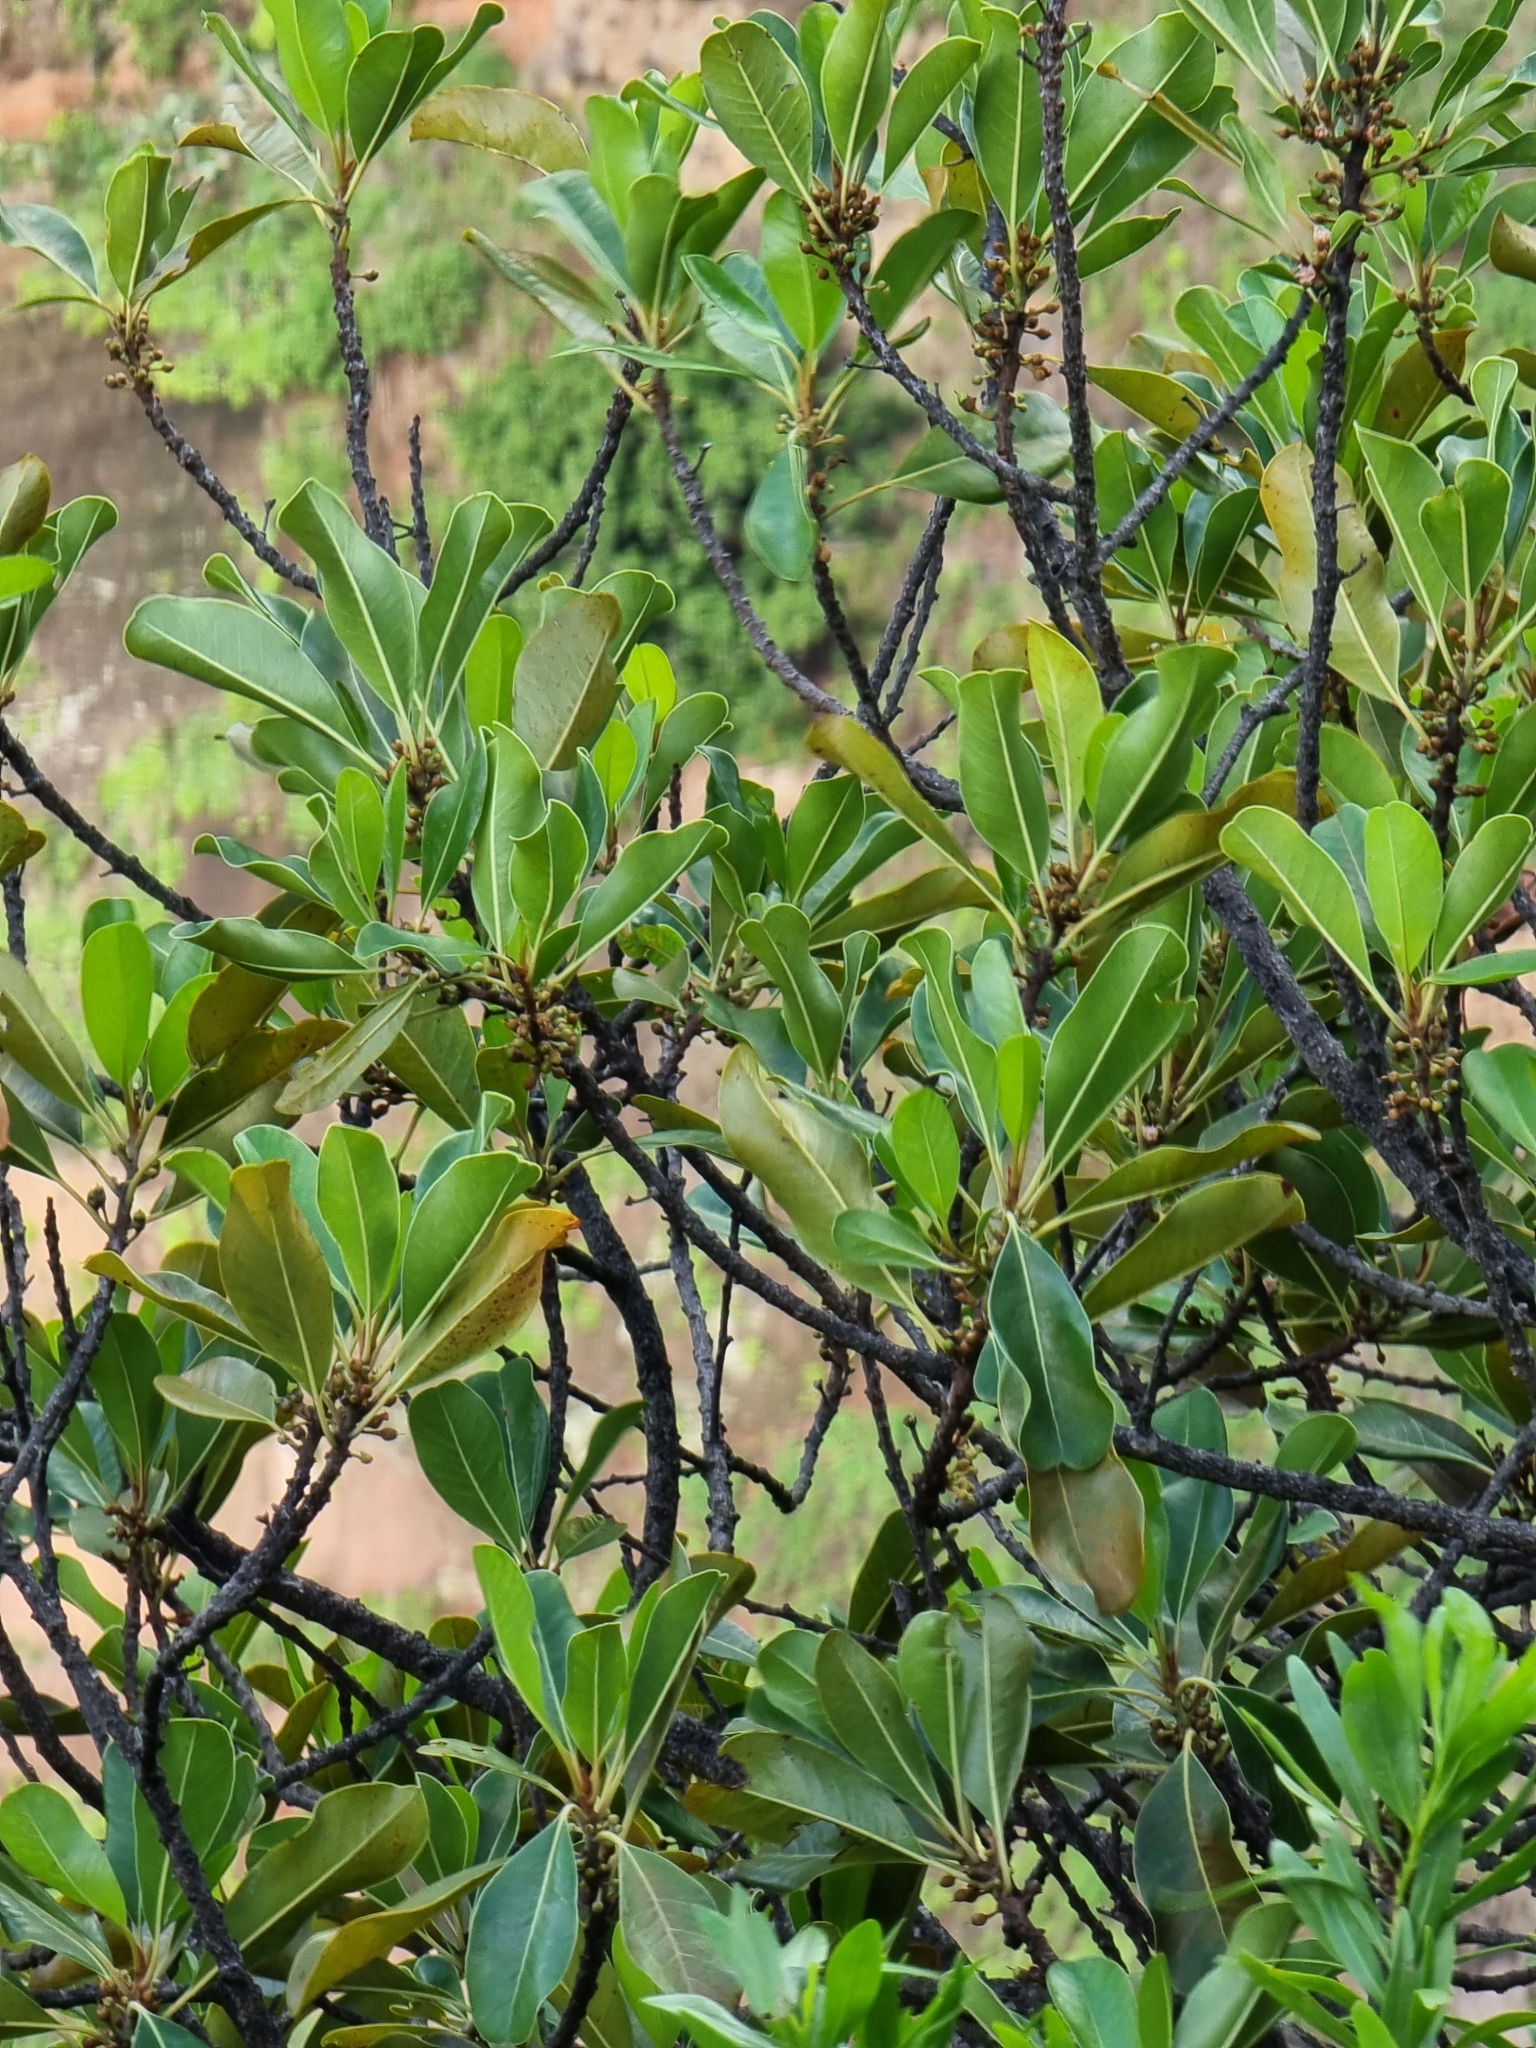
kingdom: Plantae
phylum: Tracheophyta
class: Magnoliopsida
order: Ericales
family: Sapotaceae
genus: Sideroxylon
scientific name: Sideroxylon mirmulans
